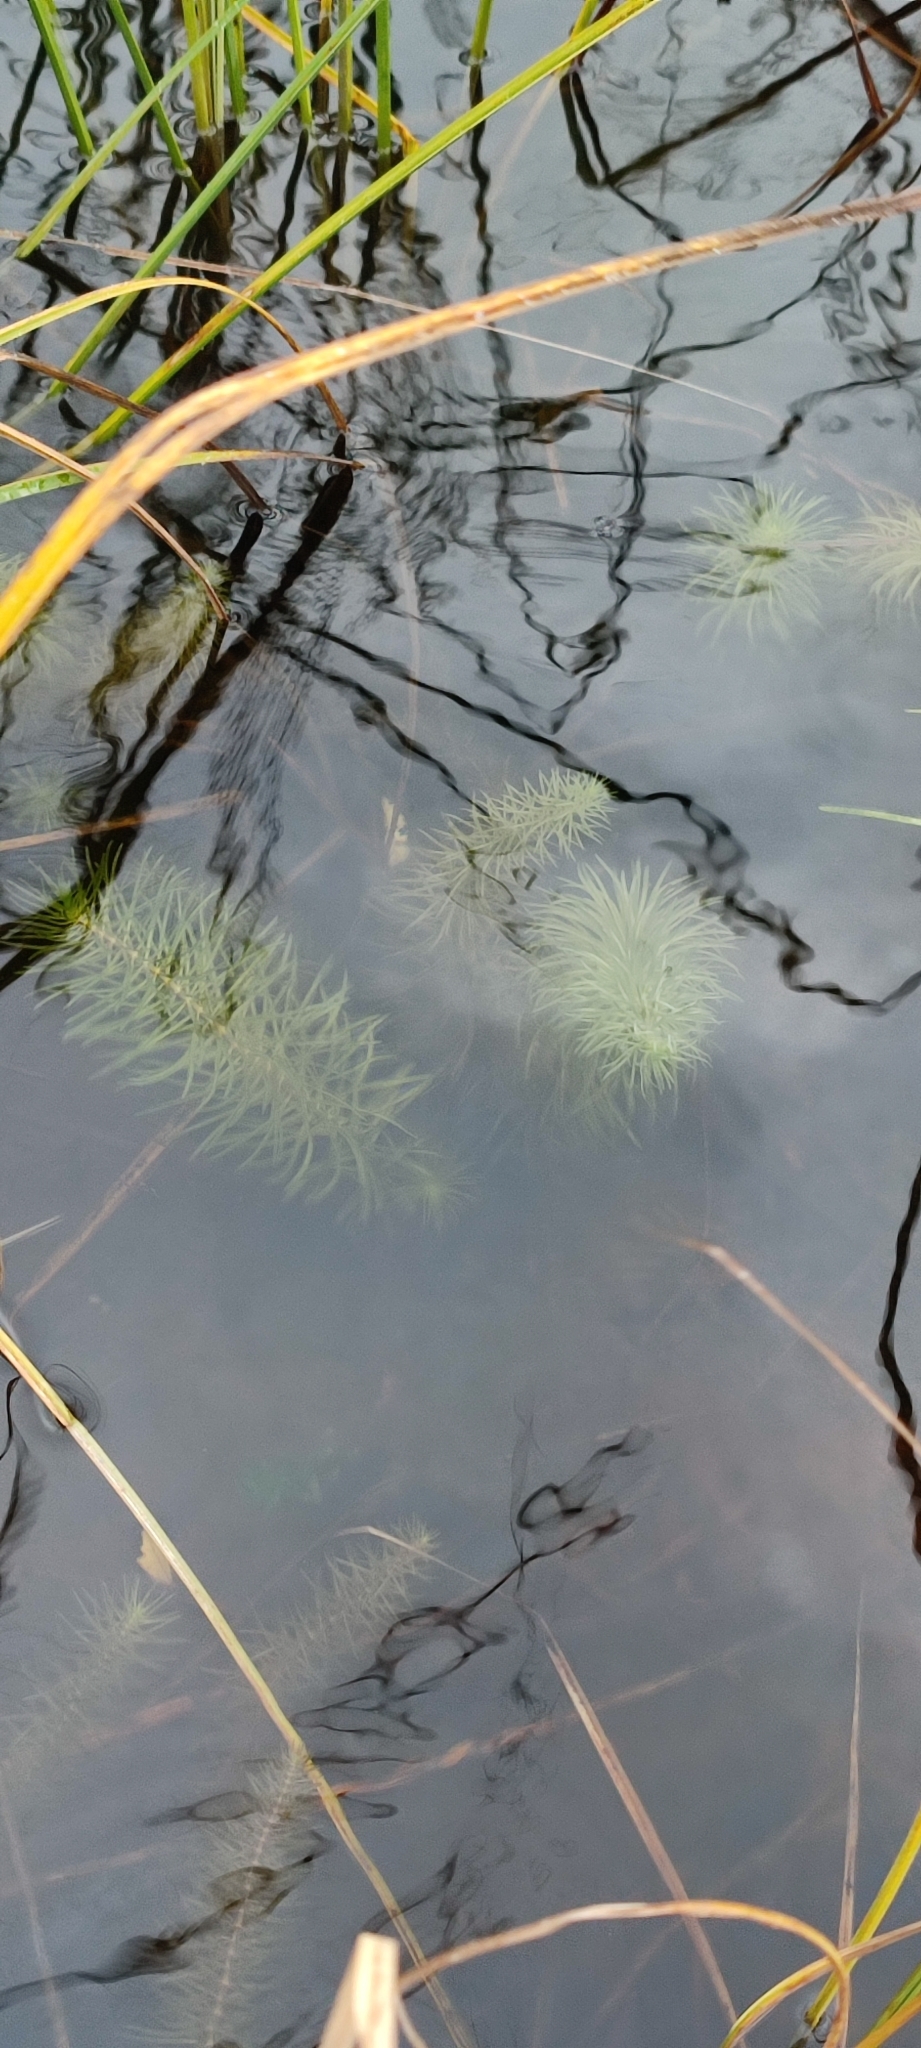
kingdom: Plantae
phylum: Tracheophyta
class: Magnoliopsida
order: Lamiales
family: Plantaginaceae
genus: Hippuris
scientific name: Hippuris vulgaris
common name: Mare's-tail
